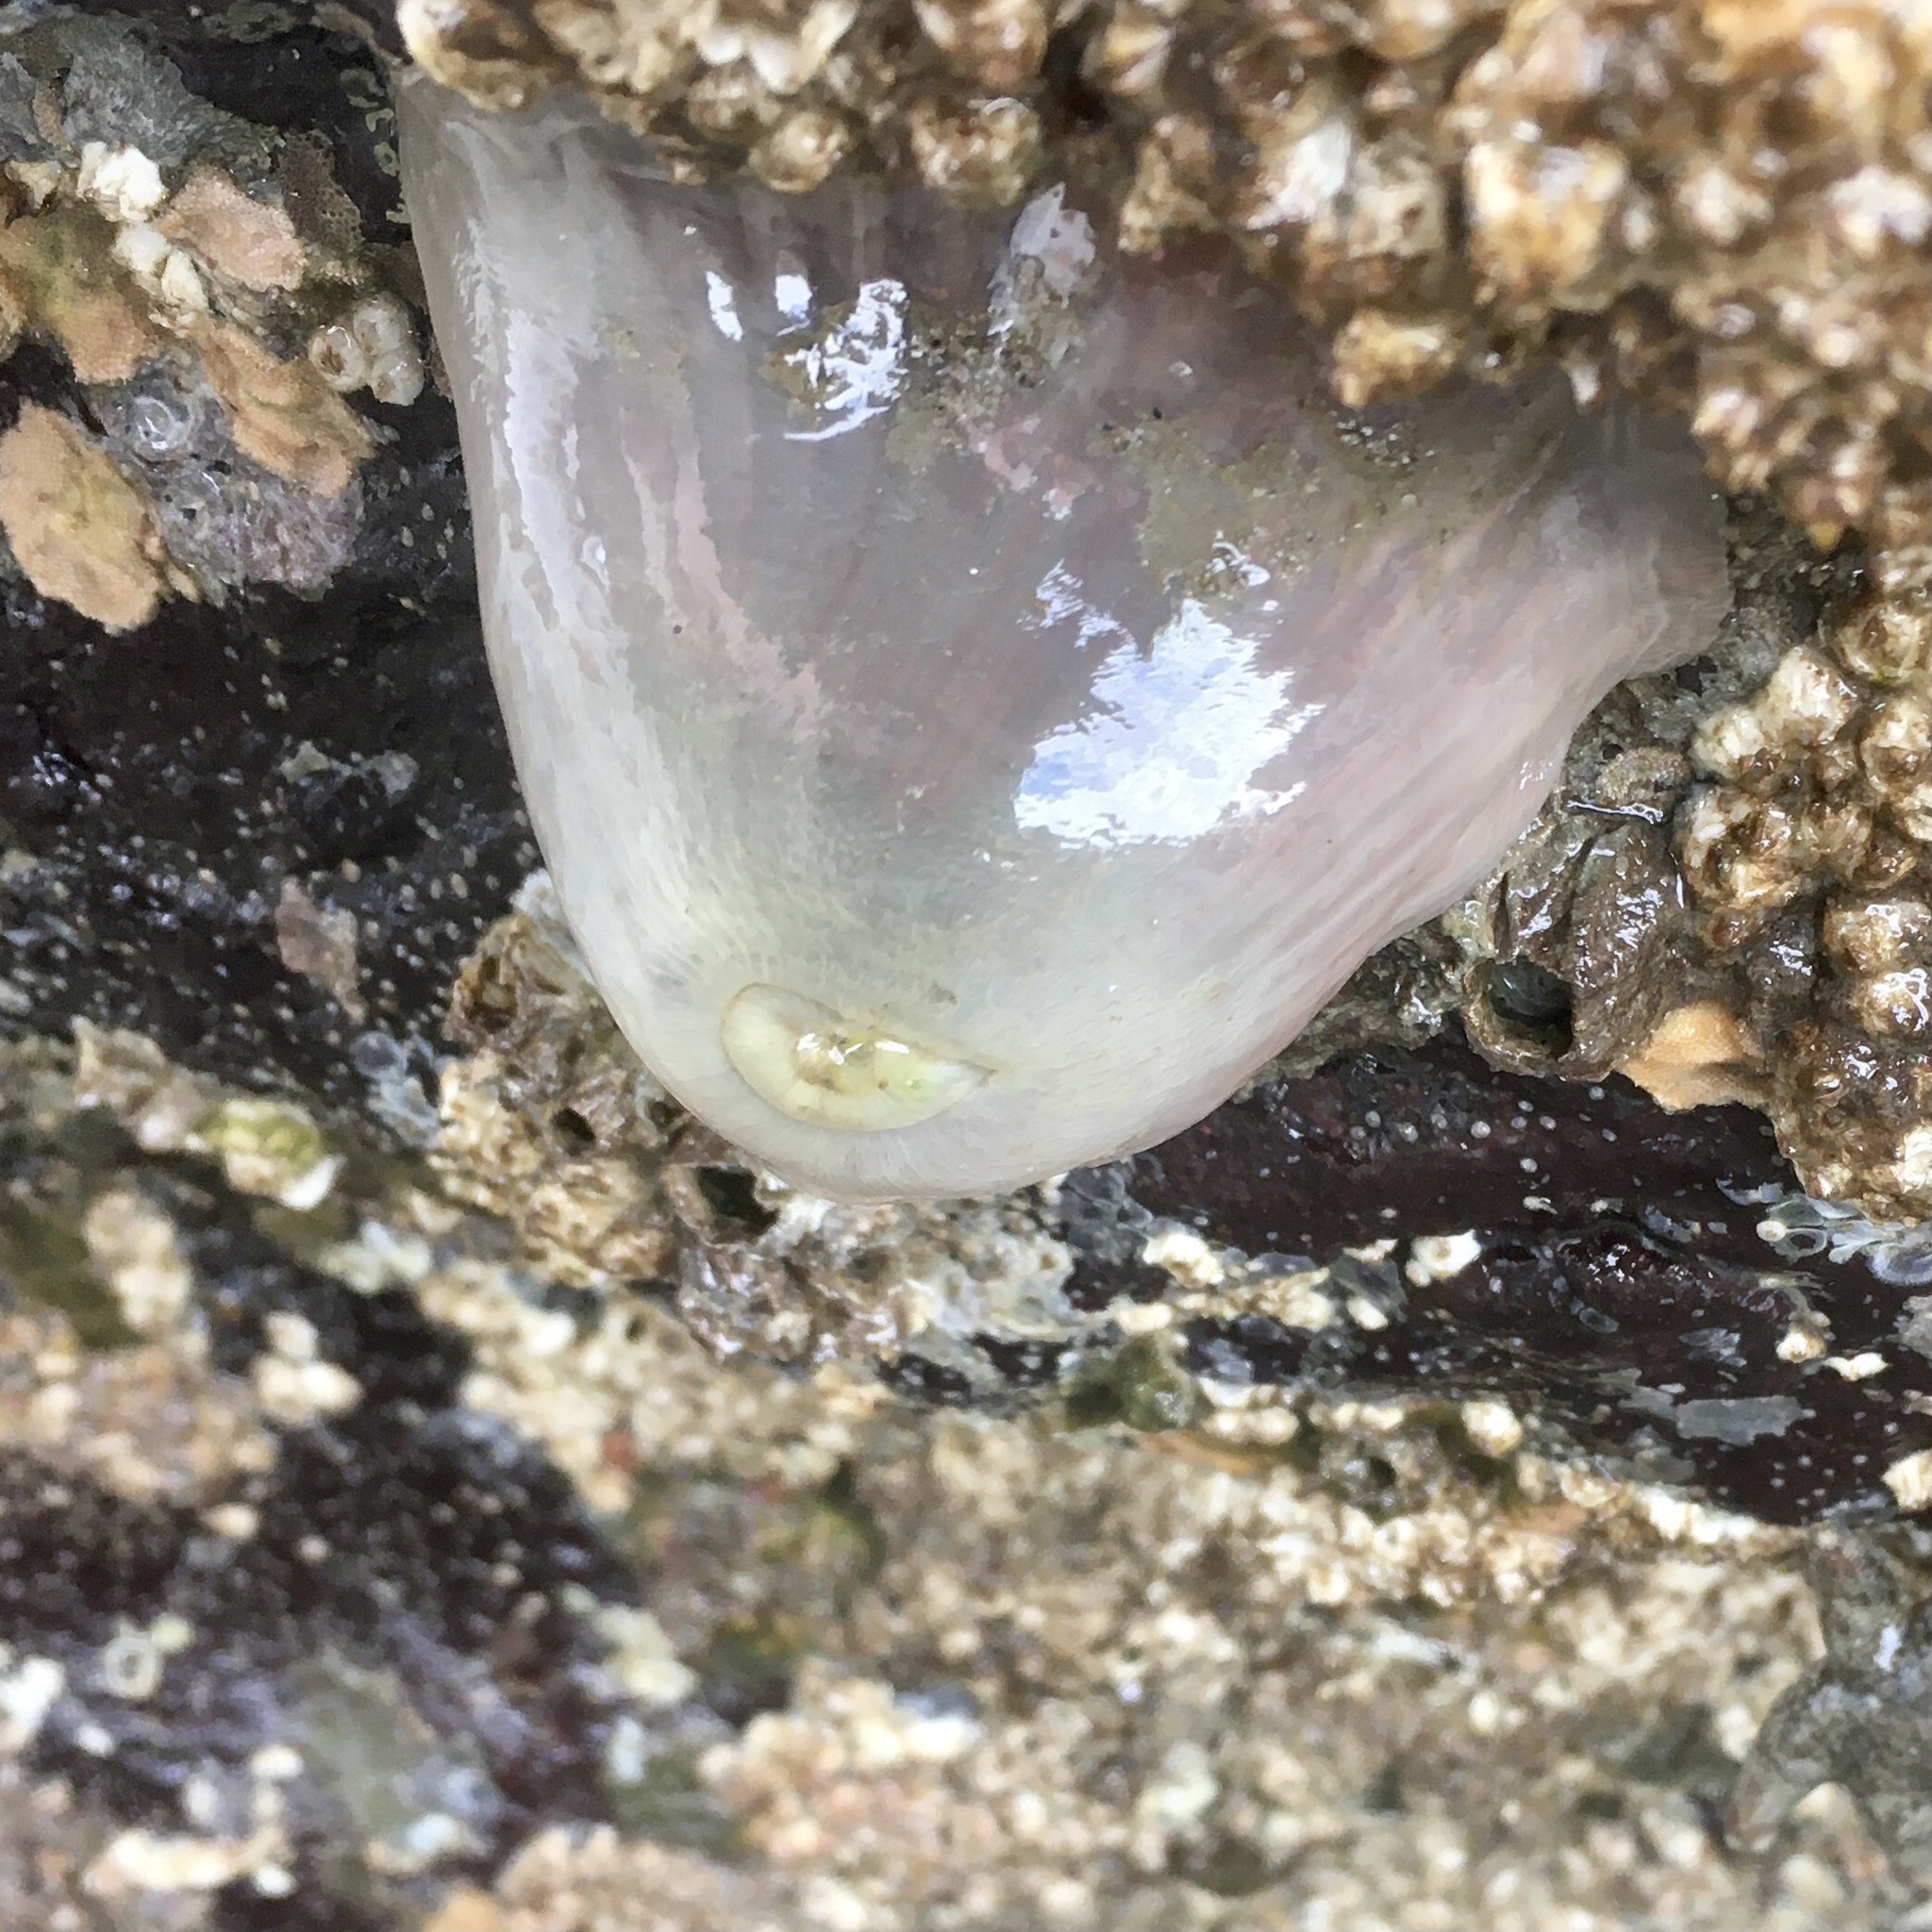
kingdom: Animalia
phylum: Cnidaria
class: Anthozoa
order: Actiniaria
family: Metridiidae
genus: Metridium
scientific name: Metridium senile
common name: Clonal plumose anemone
